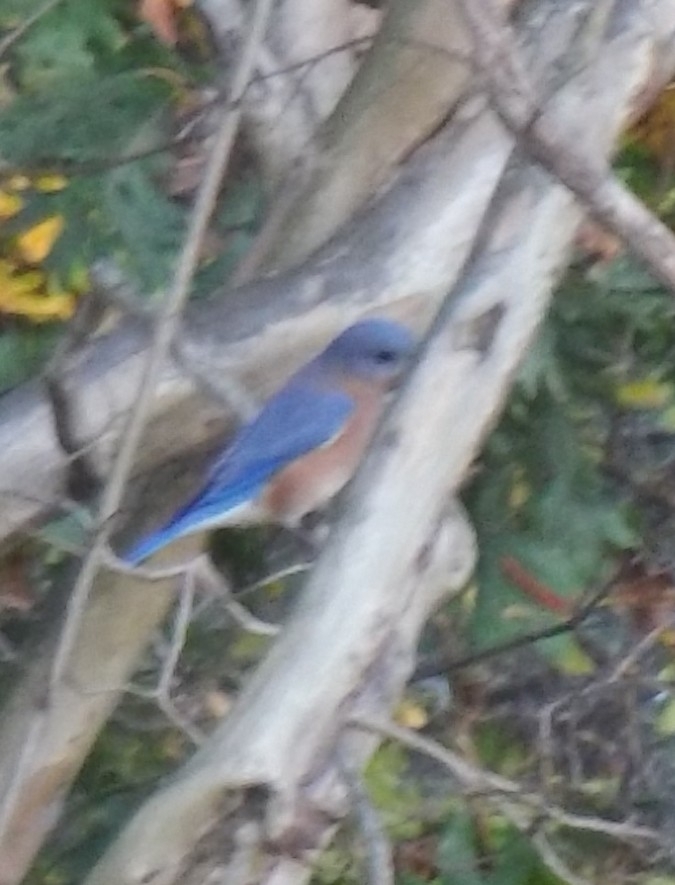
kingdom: Animalia
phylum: Chordata
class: Aves
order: Passeriformes
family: Turdidae
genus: Sialia
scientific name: Sialia sialis
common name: Eastern bluebird
